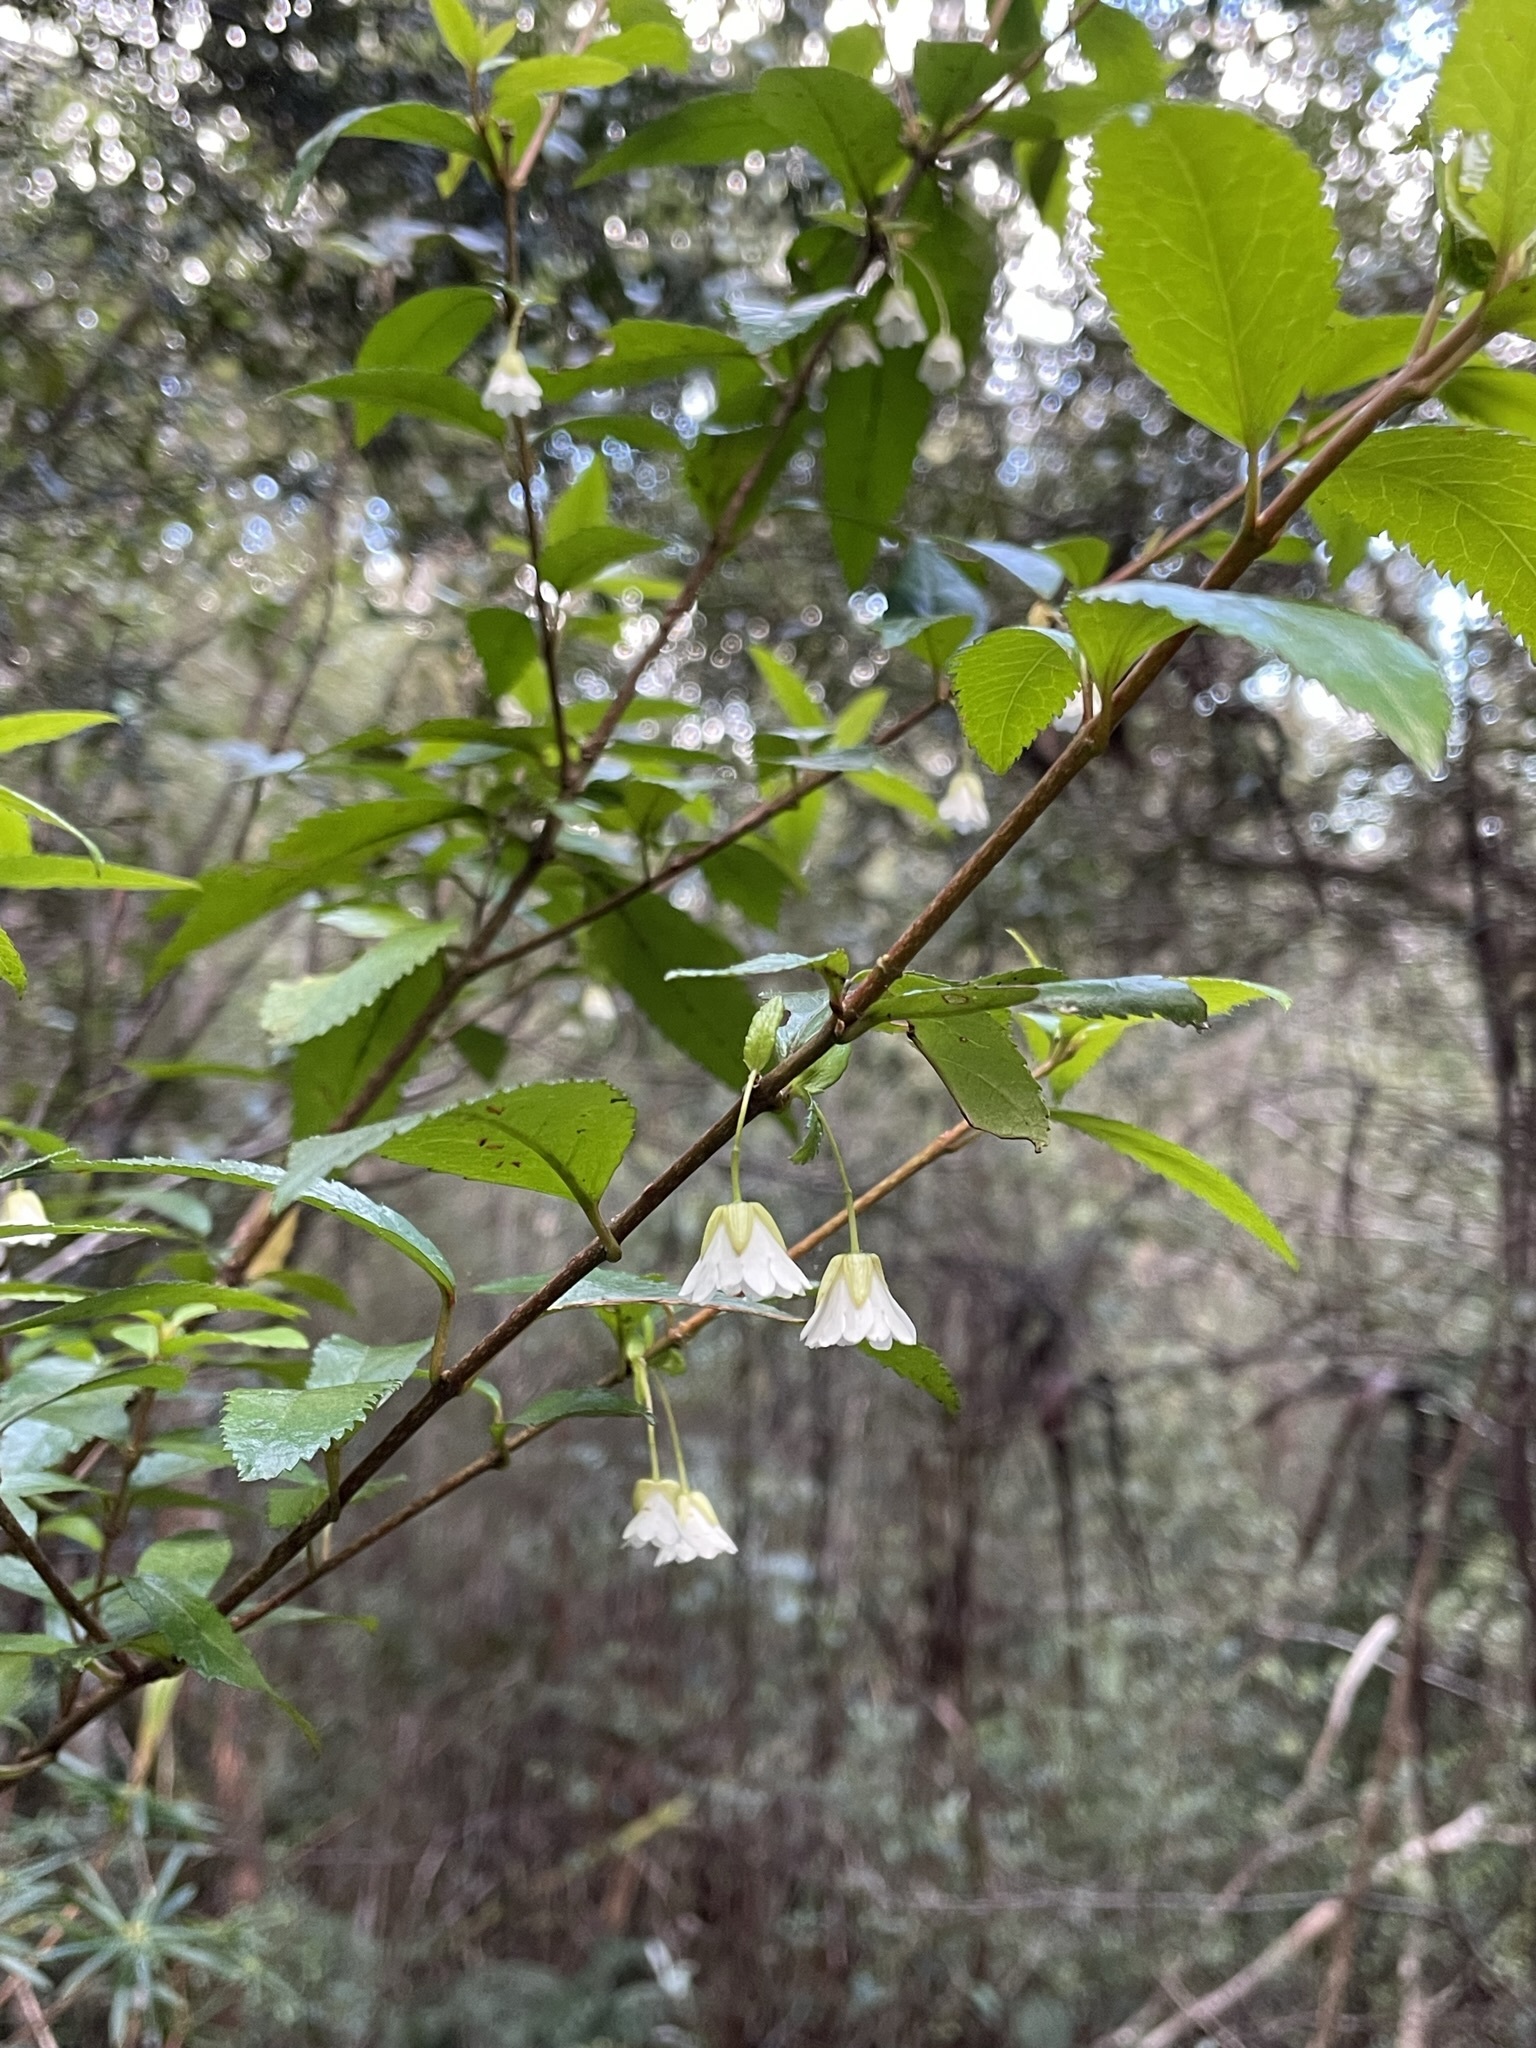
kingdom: Plantae
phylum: Tracheophyta
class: Magnoliopsida
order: Oxalidales
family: Elaeocarpaceae
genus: Aristotelia
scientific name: Aristotelia peduncularis
